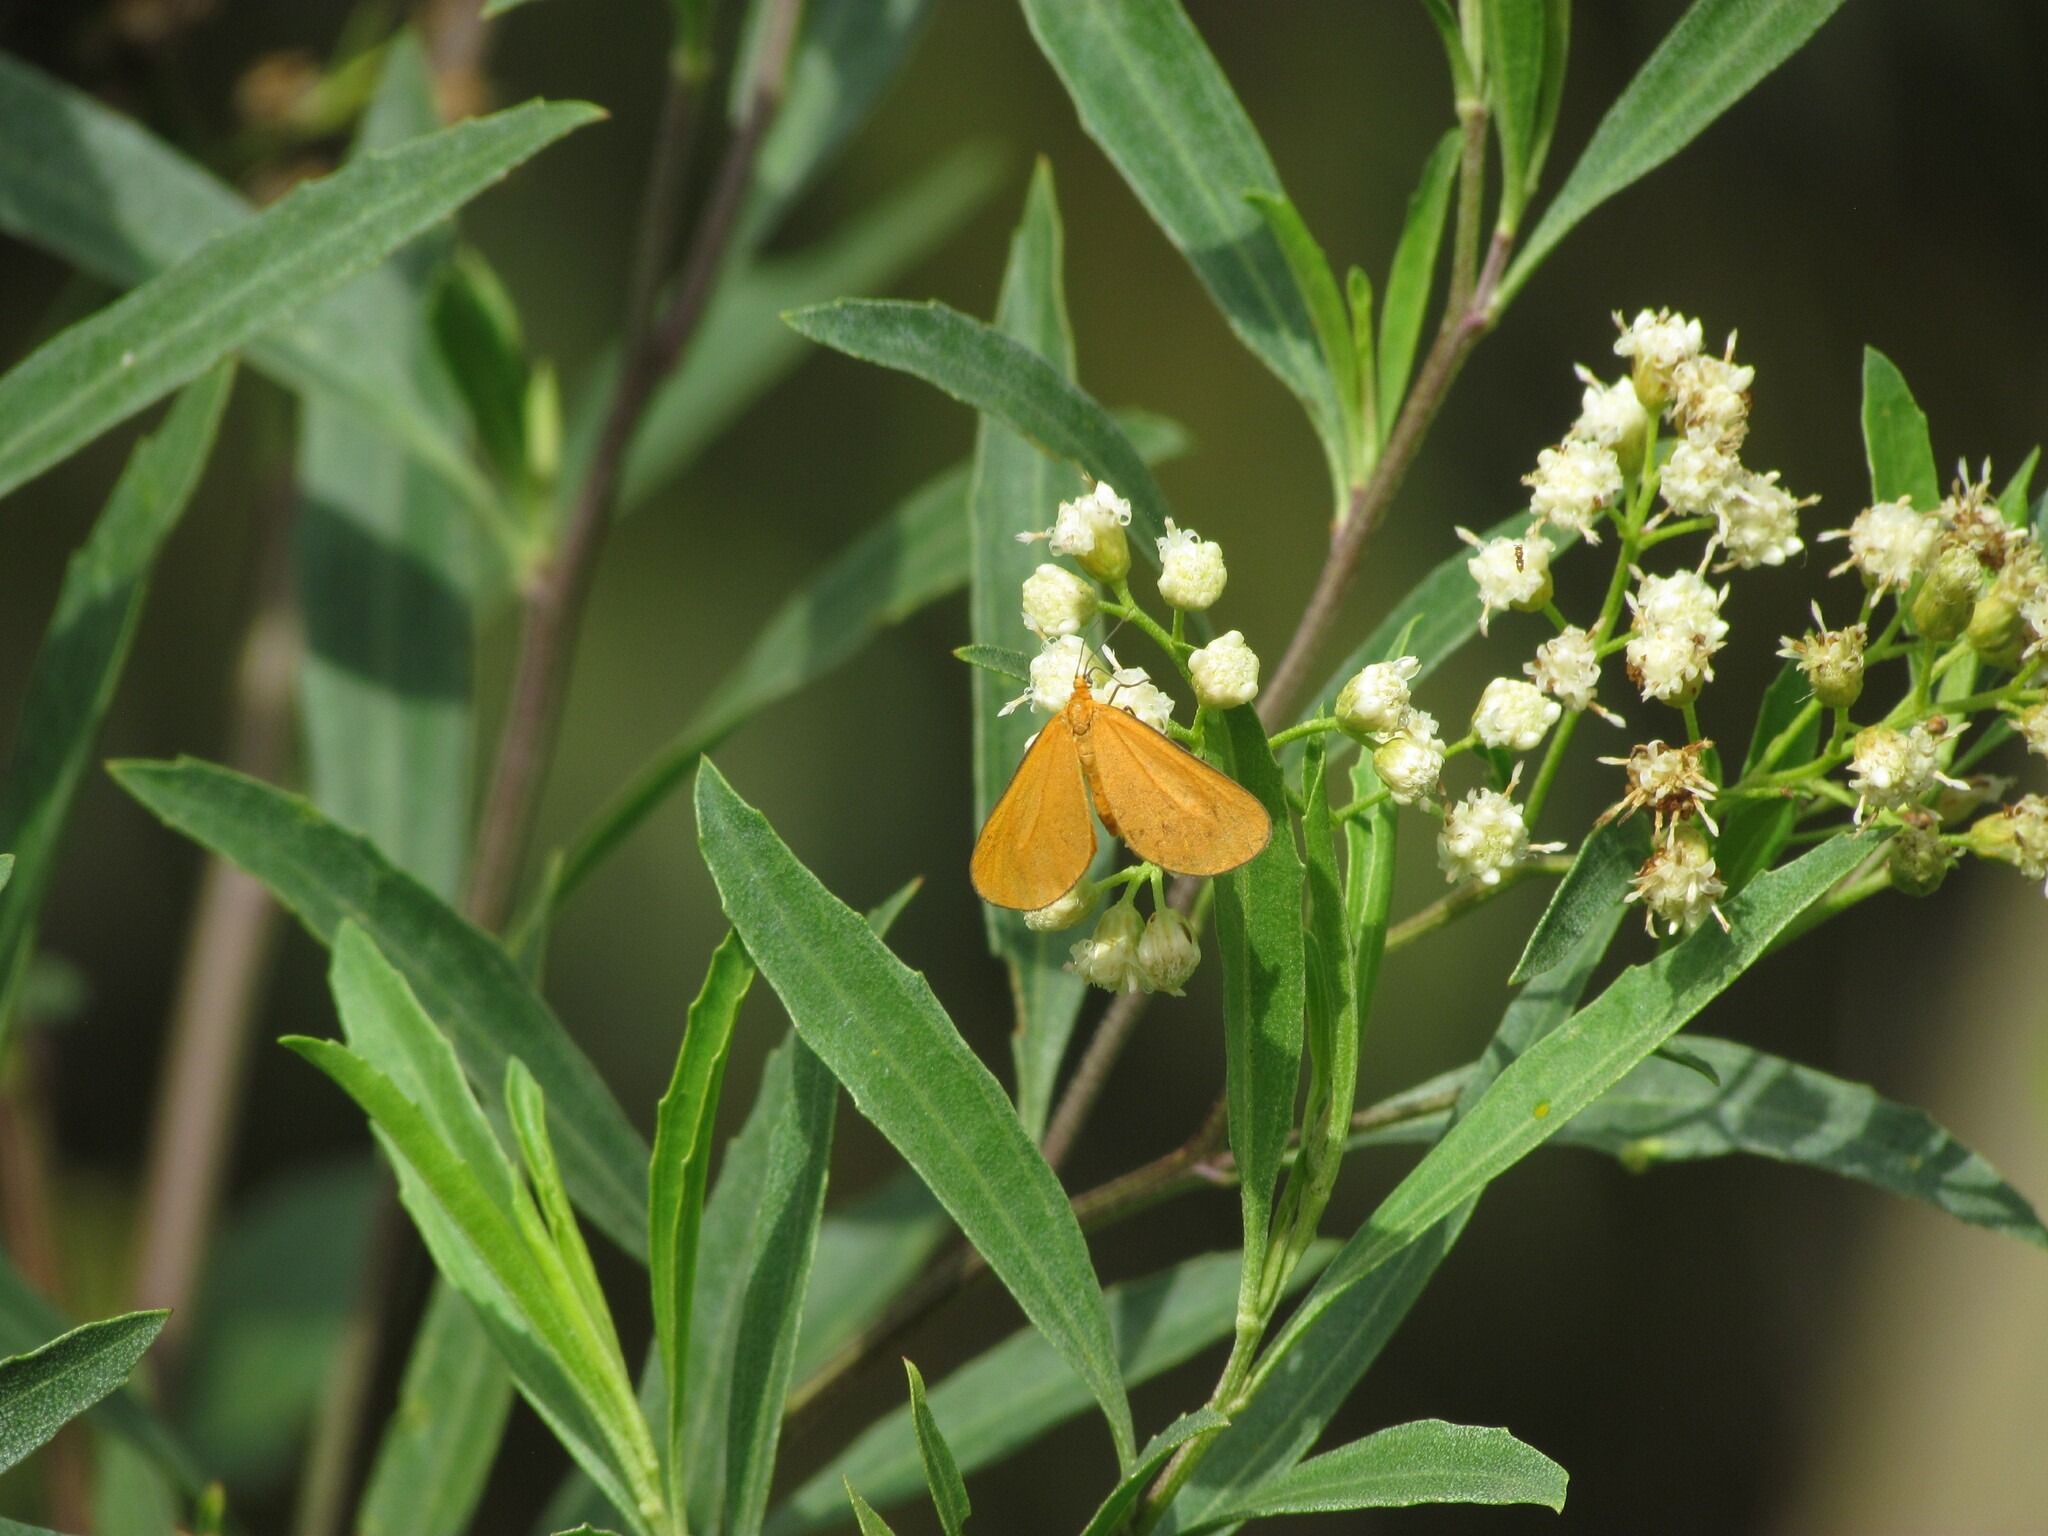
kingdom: Animalia
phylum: Arthropoda
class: Insecta
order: Lepidoptera
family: Geometridae
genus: Eudulophasia
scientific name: Eudulophasia invaria
